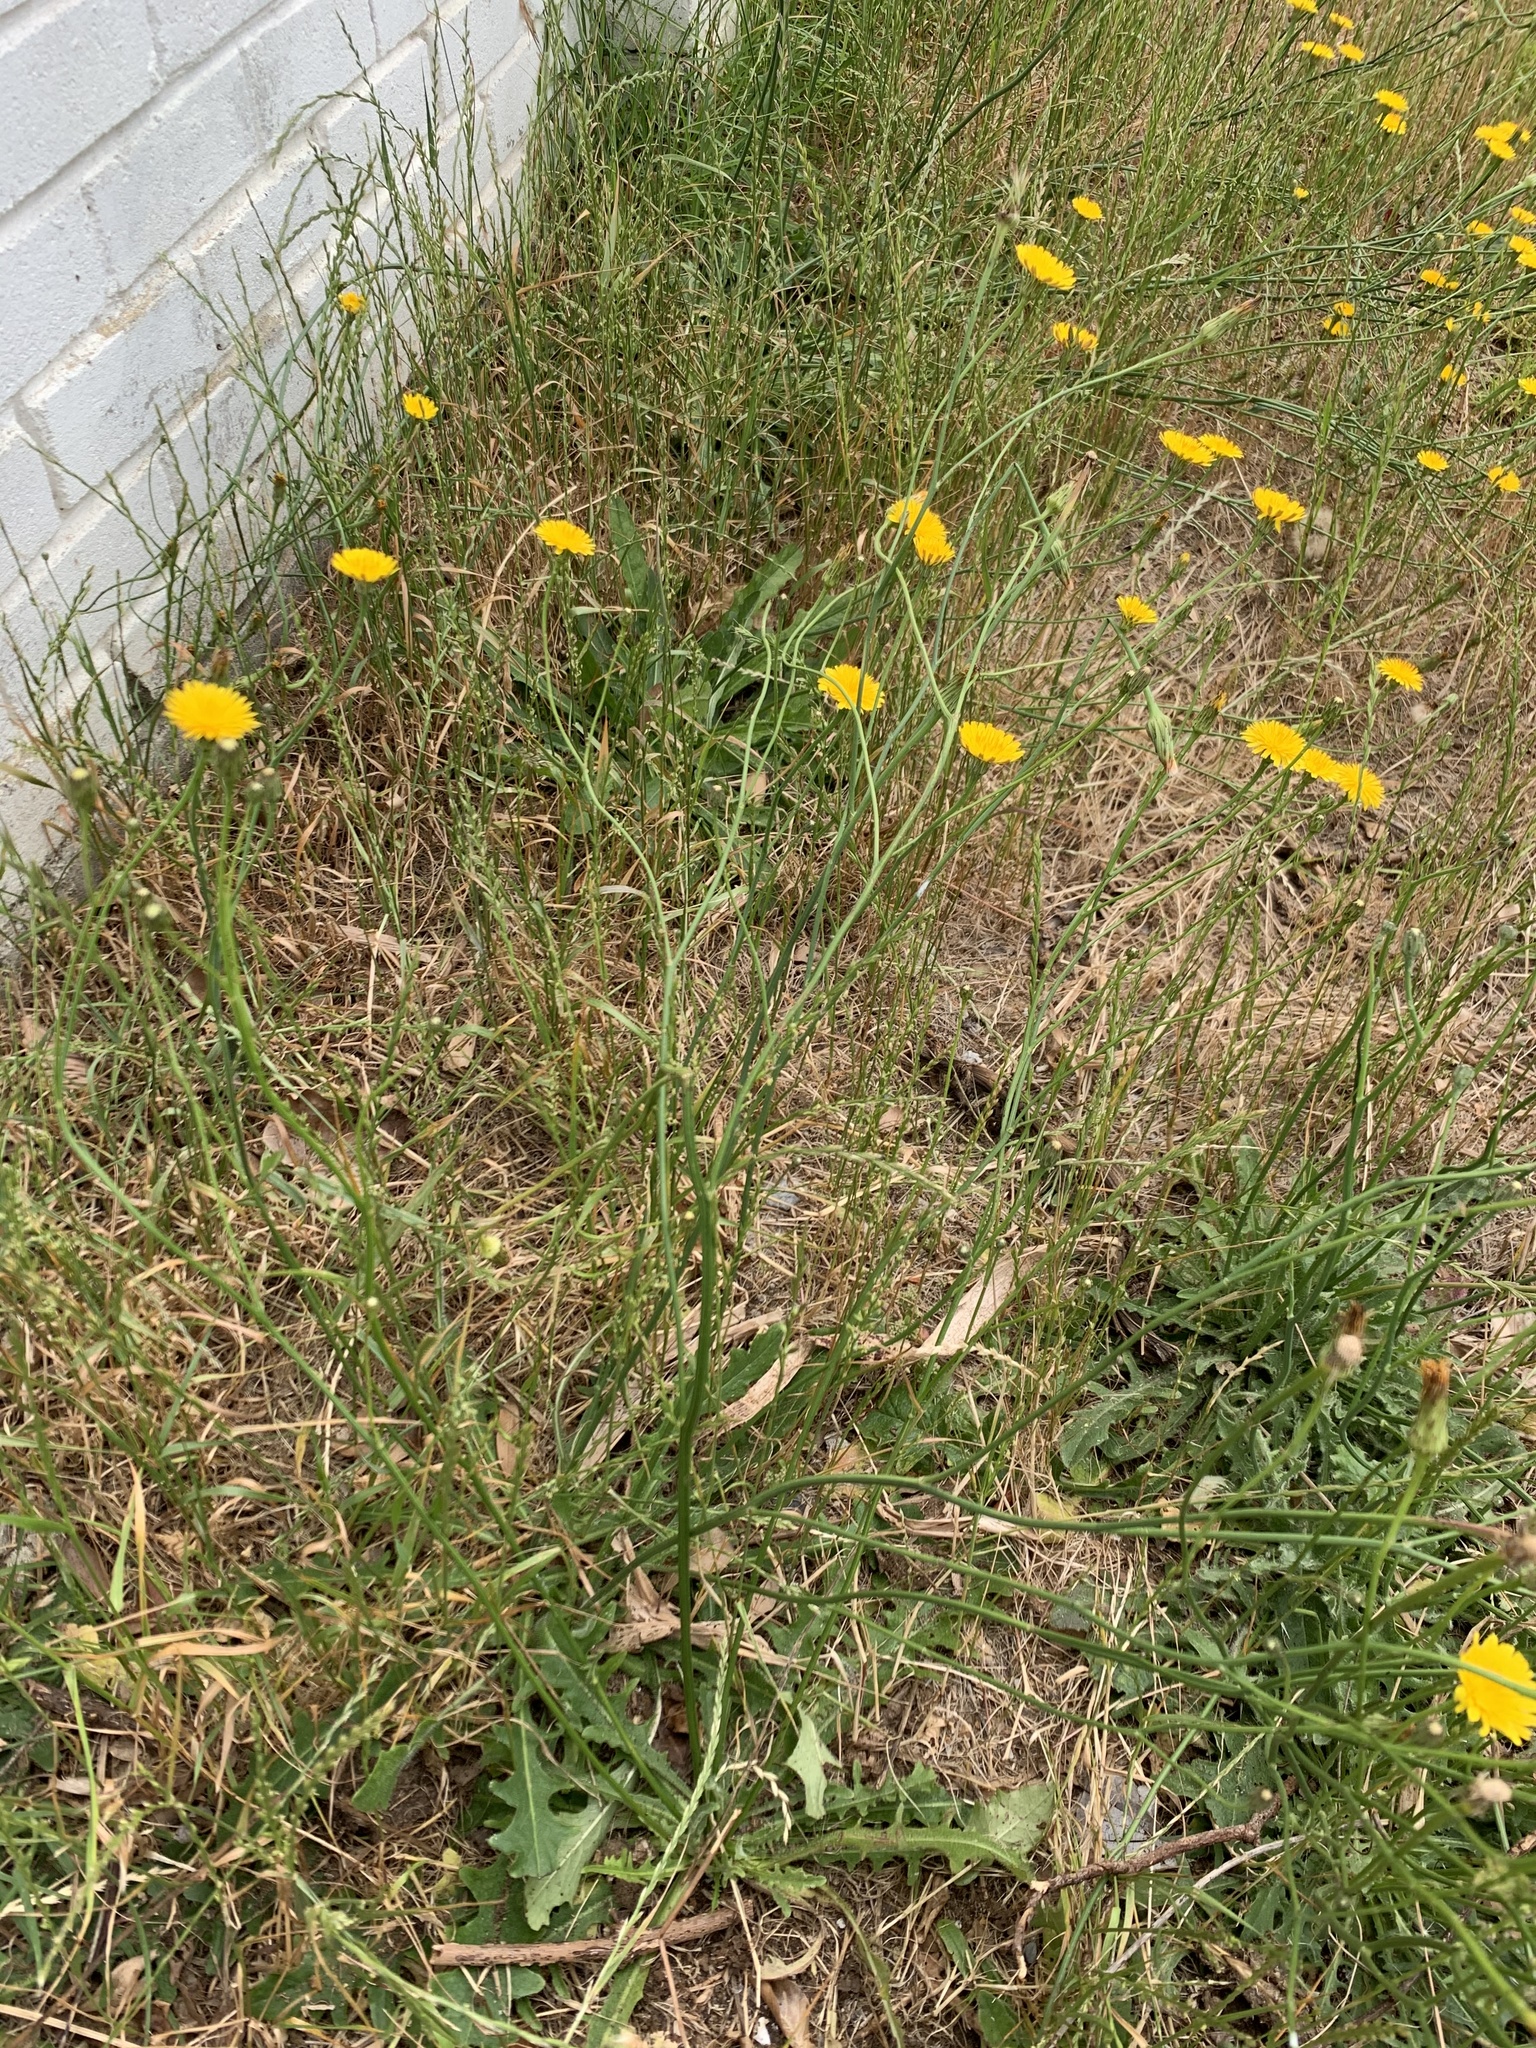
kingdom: Plantae
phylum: Tracheophyta
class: Magnoliopsida
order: Asterales
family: Asteraceae
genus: Hypochaeris
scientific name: Hypochaeris radicata
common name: Flatweed
